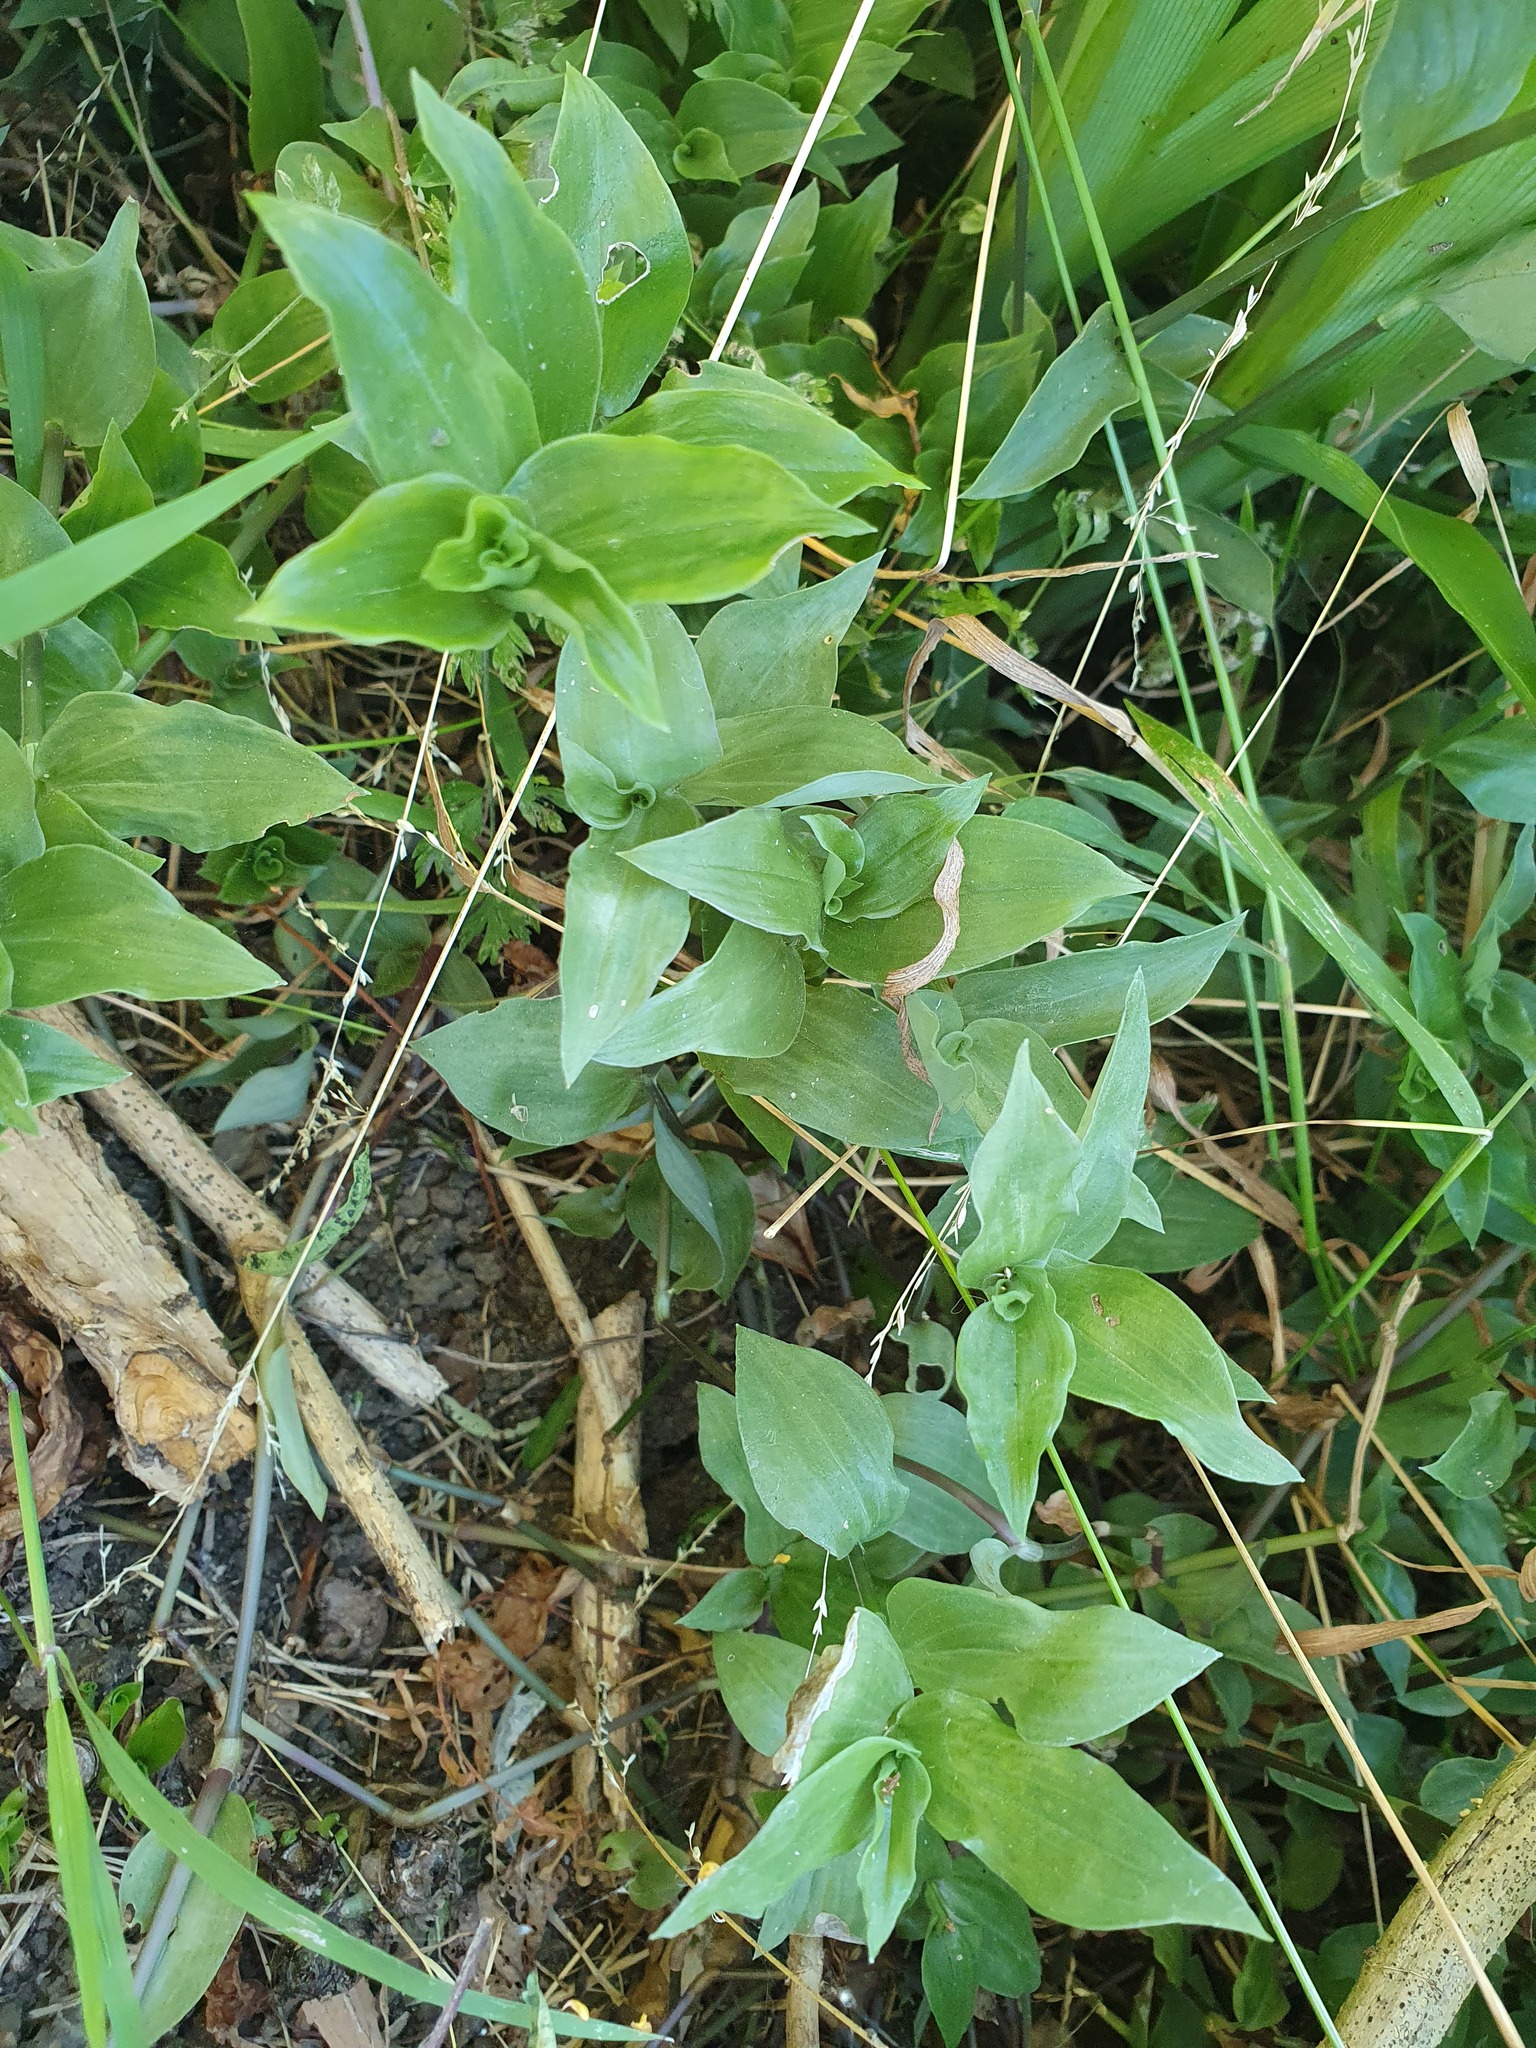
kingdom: Plantae
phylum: Tracheophyta
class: Liliopsida
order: Commelinales
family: Commelinaceae
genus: Tradescantia
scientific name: Tradescantia fluminensis
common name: Wandering-jew
